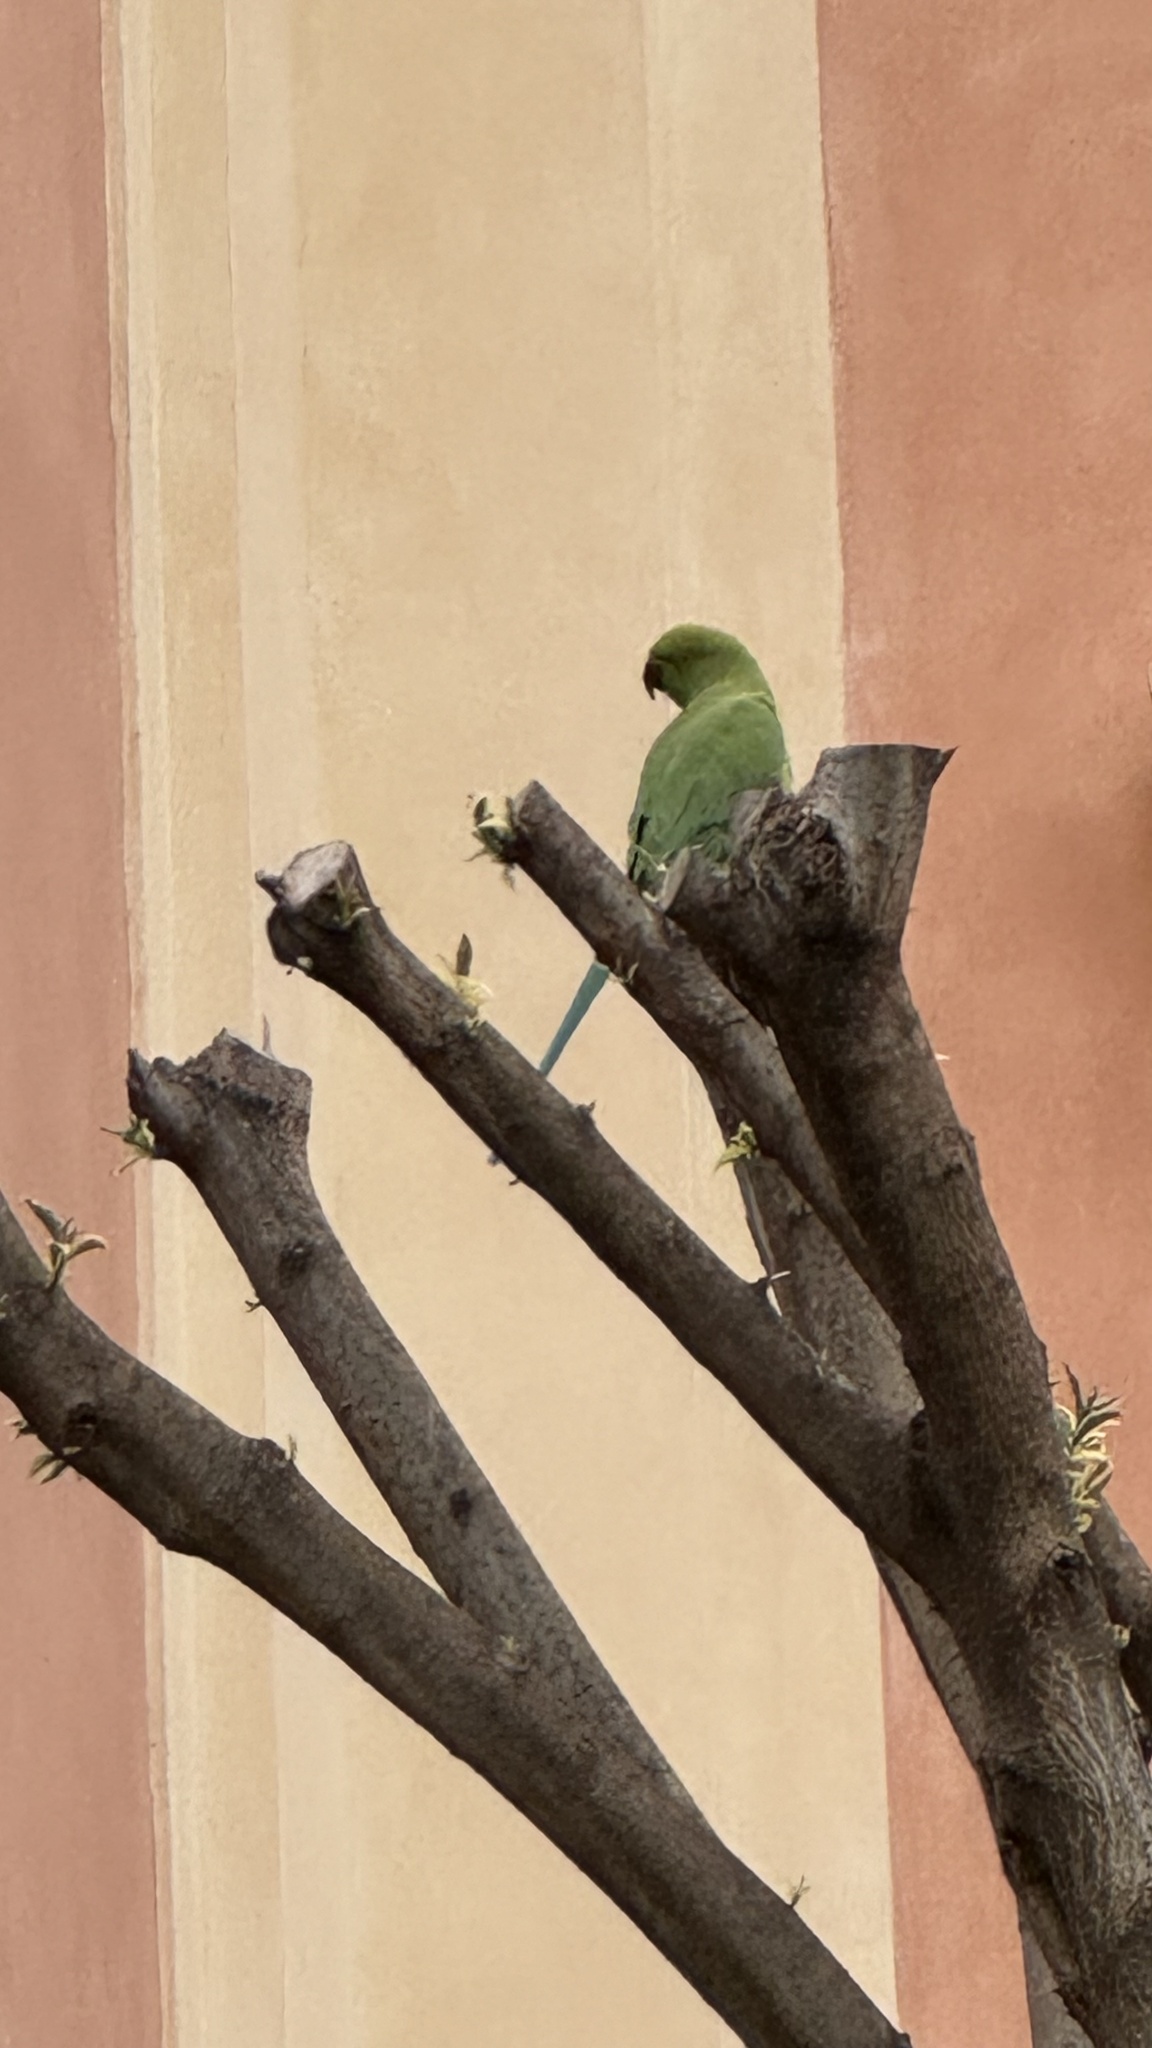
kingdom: Animalia
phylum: Chordata
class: Aves
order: Psittaciformes
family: Psittacidae
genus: Psittacula
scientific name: Psittacula krameri
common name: Rose-ringed parakeet
